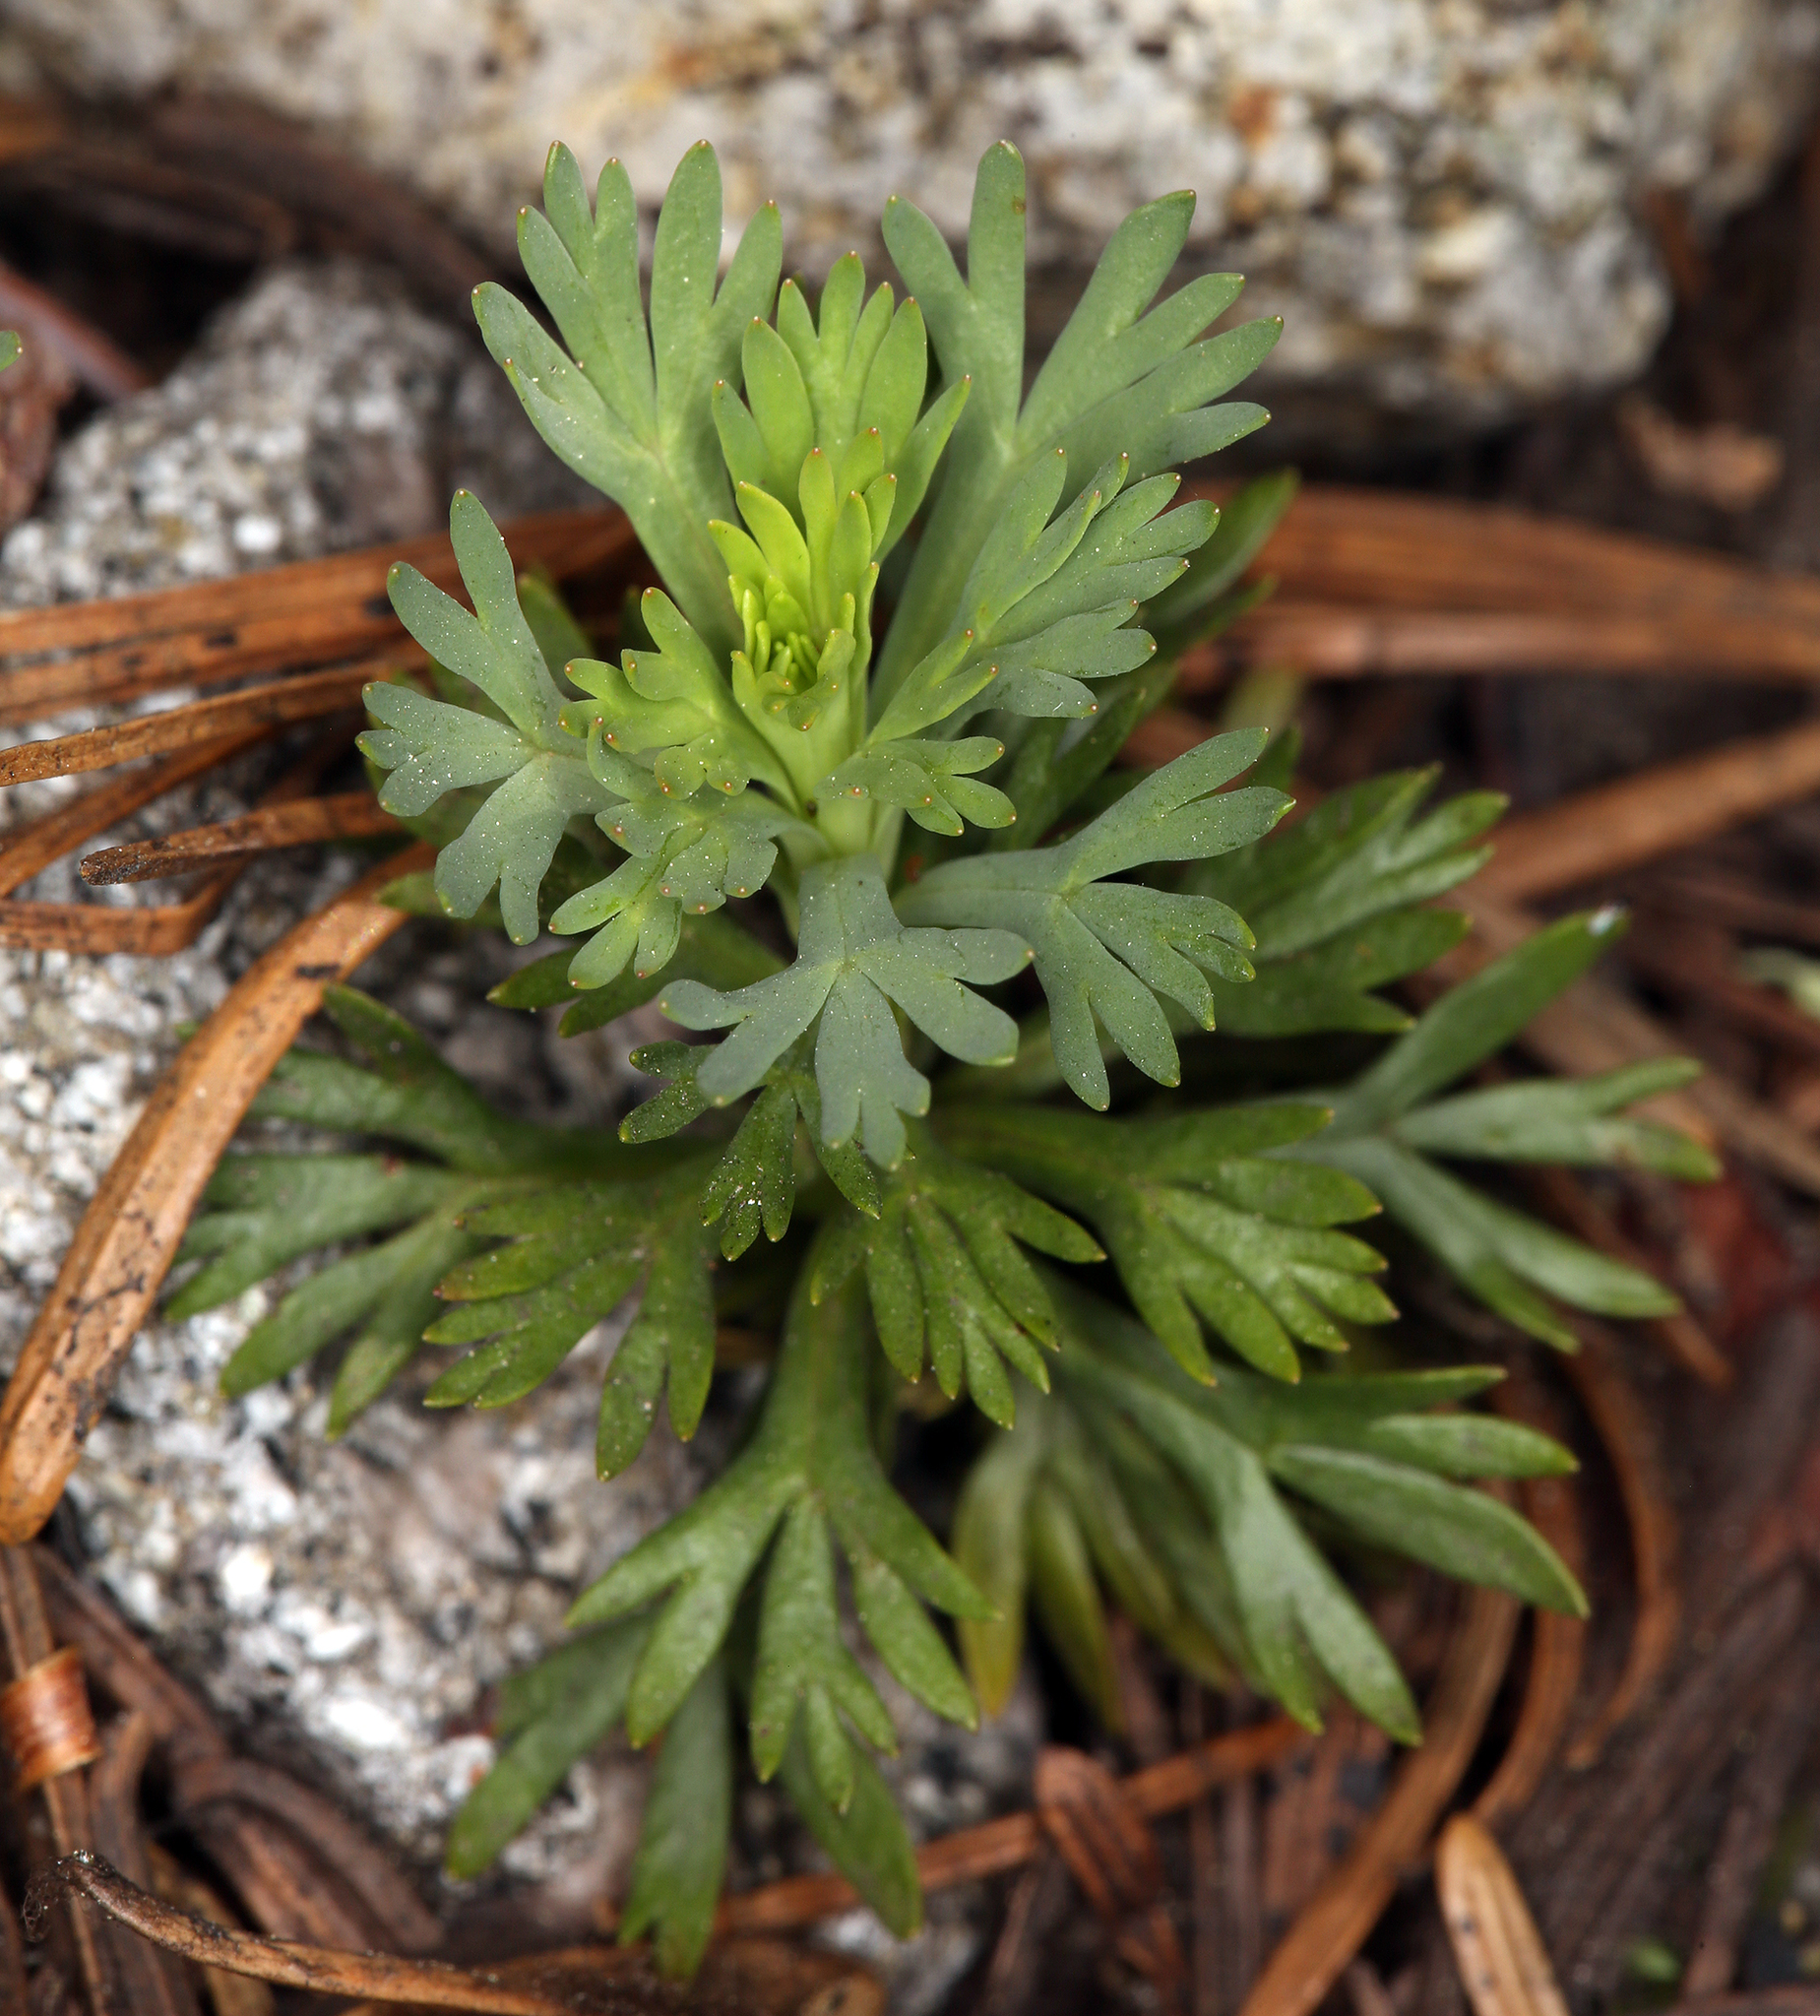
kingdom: Plantae
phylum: Tracheophyta
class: Magnoliopsida
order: Rosales
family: Rosaceae
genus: Luetkea
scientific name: Luetkea pectinata
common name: Partridgefoot
